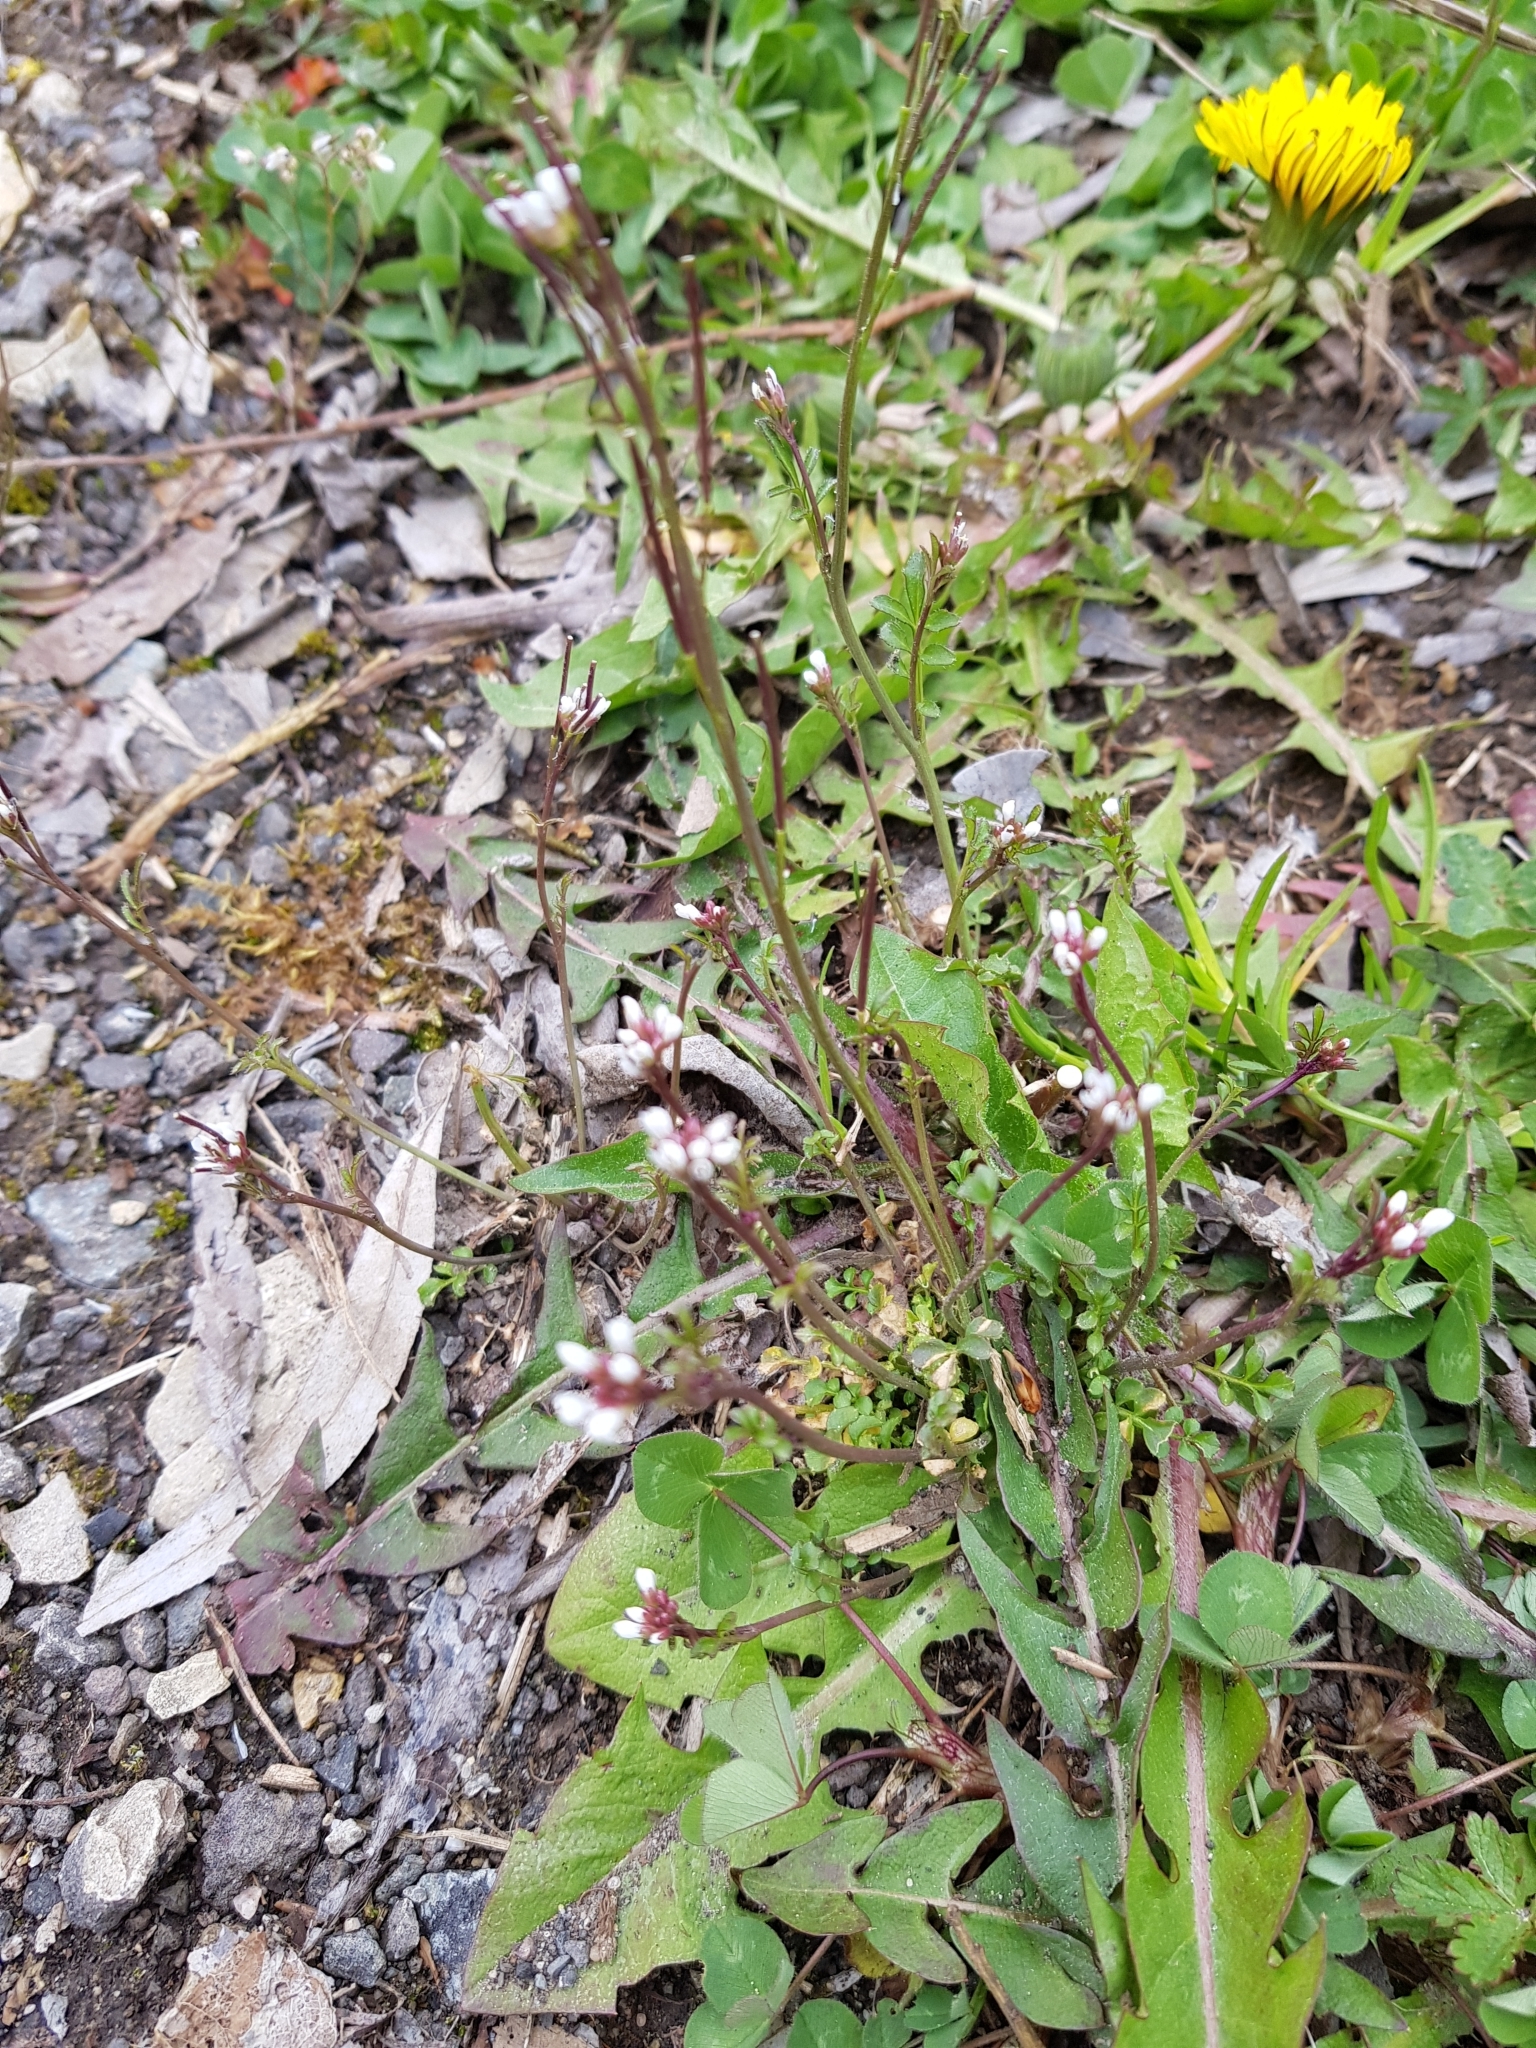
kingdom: Plantae
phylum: Tracheophyta
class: Magnoliopsida
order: Brassicales
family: Brassicaceae
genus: Cardamine
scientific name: Cardamine hirsuta
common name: Hairy bittercress
